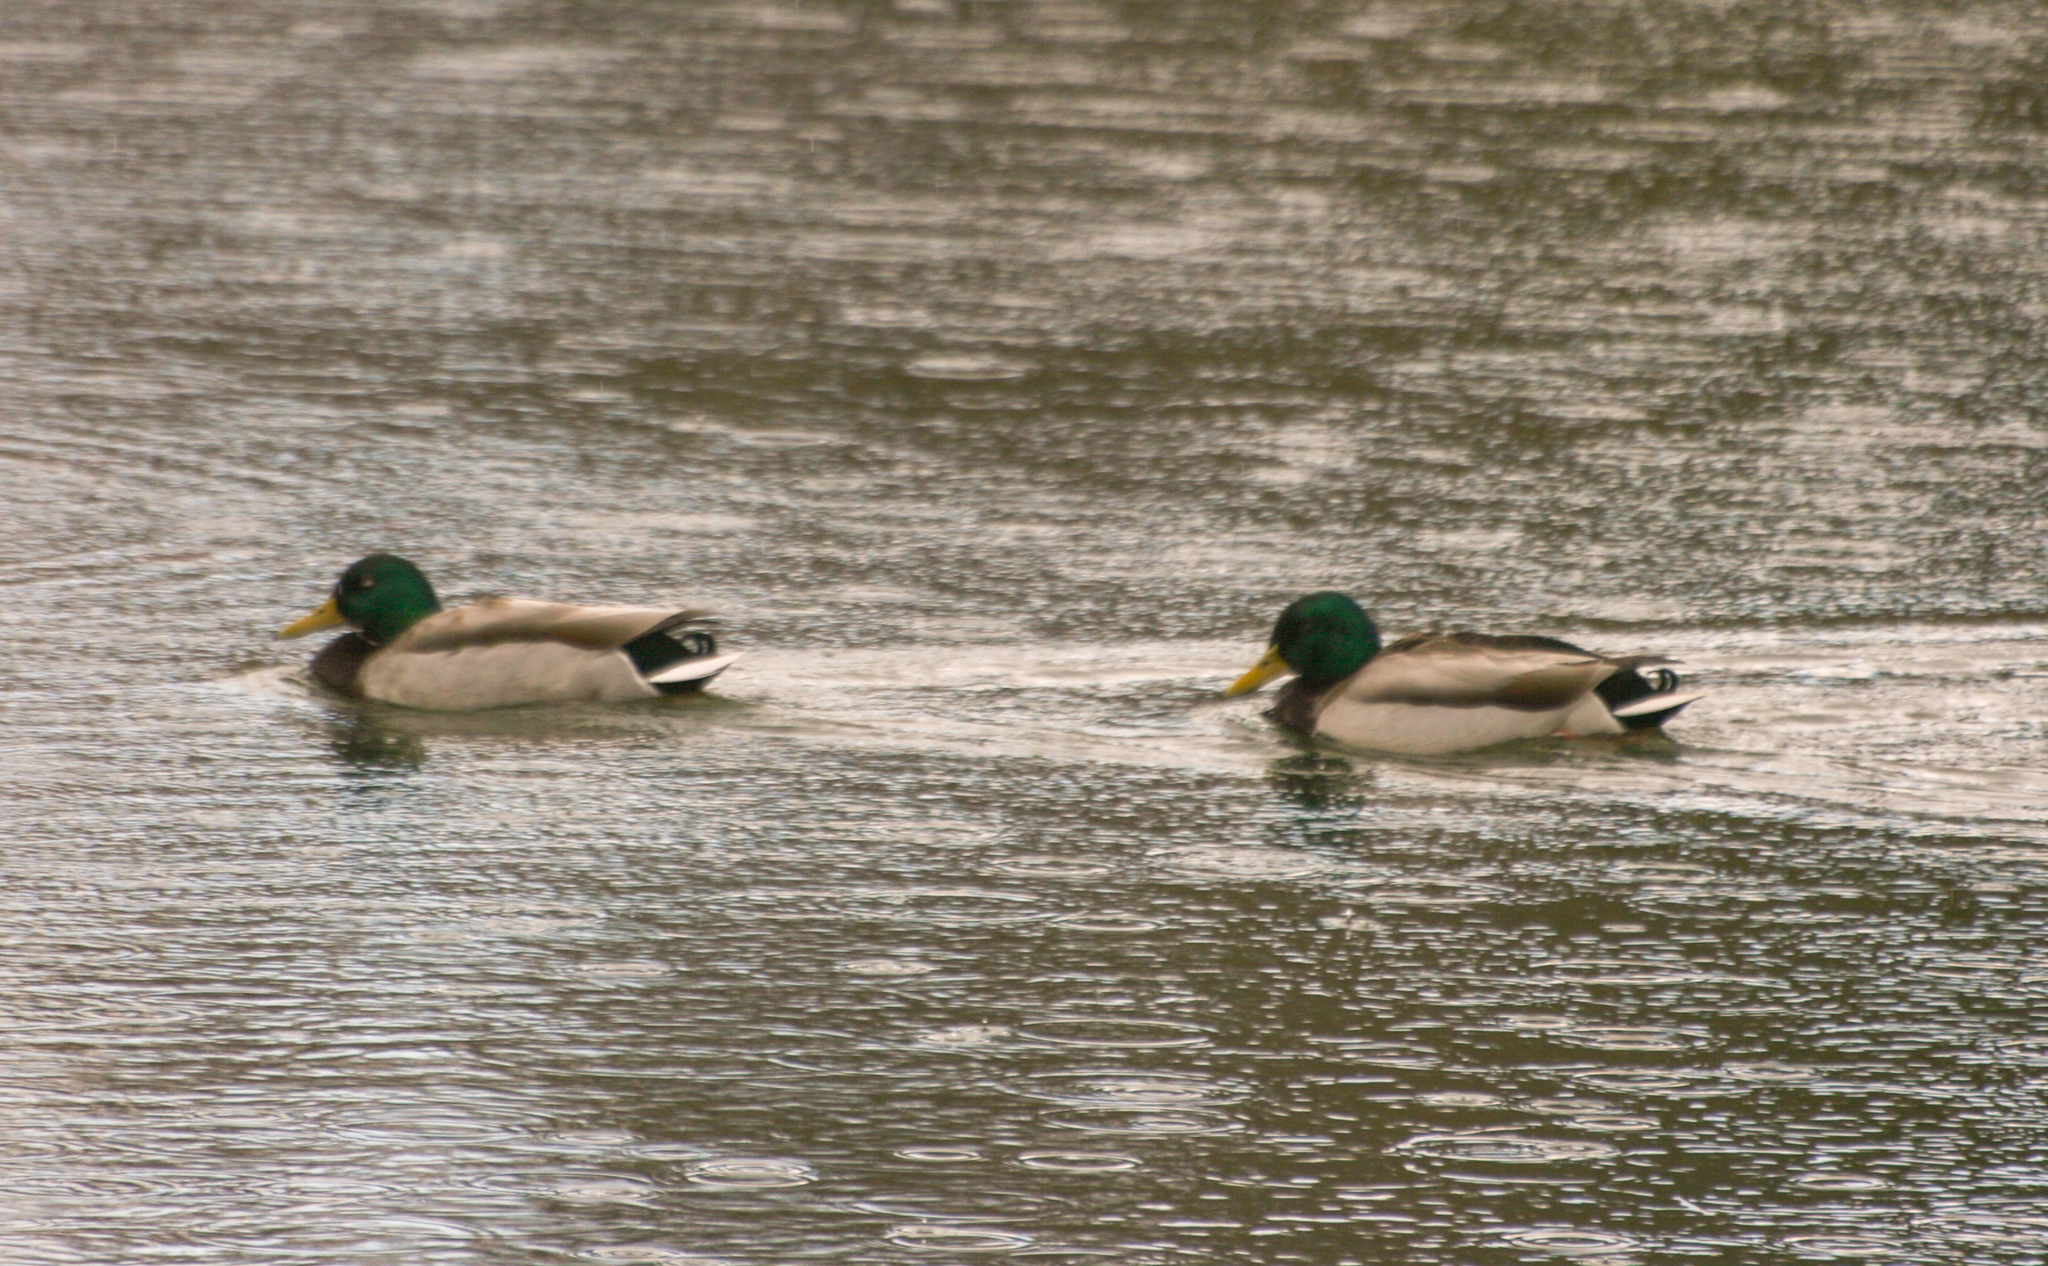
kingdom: Animalia
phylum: Chordata
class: Aves
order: Anseriformes
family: Anatidae
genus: Anas
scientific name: Anas platyrhynchos
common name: Mallard
